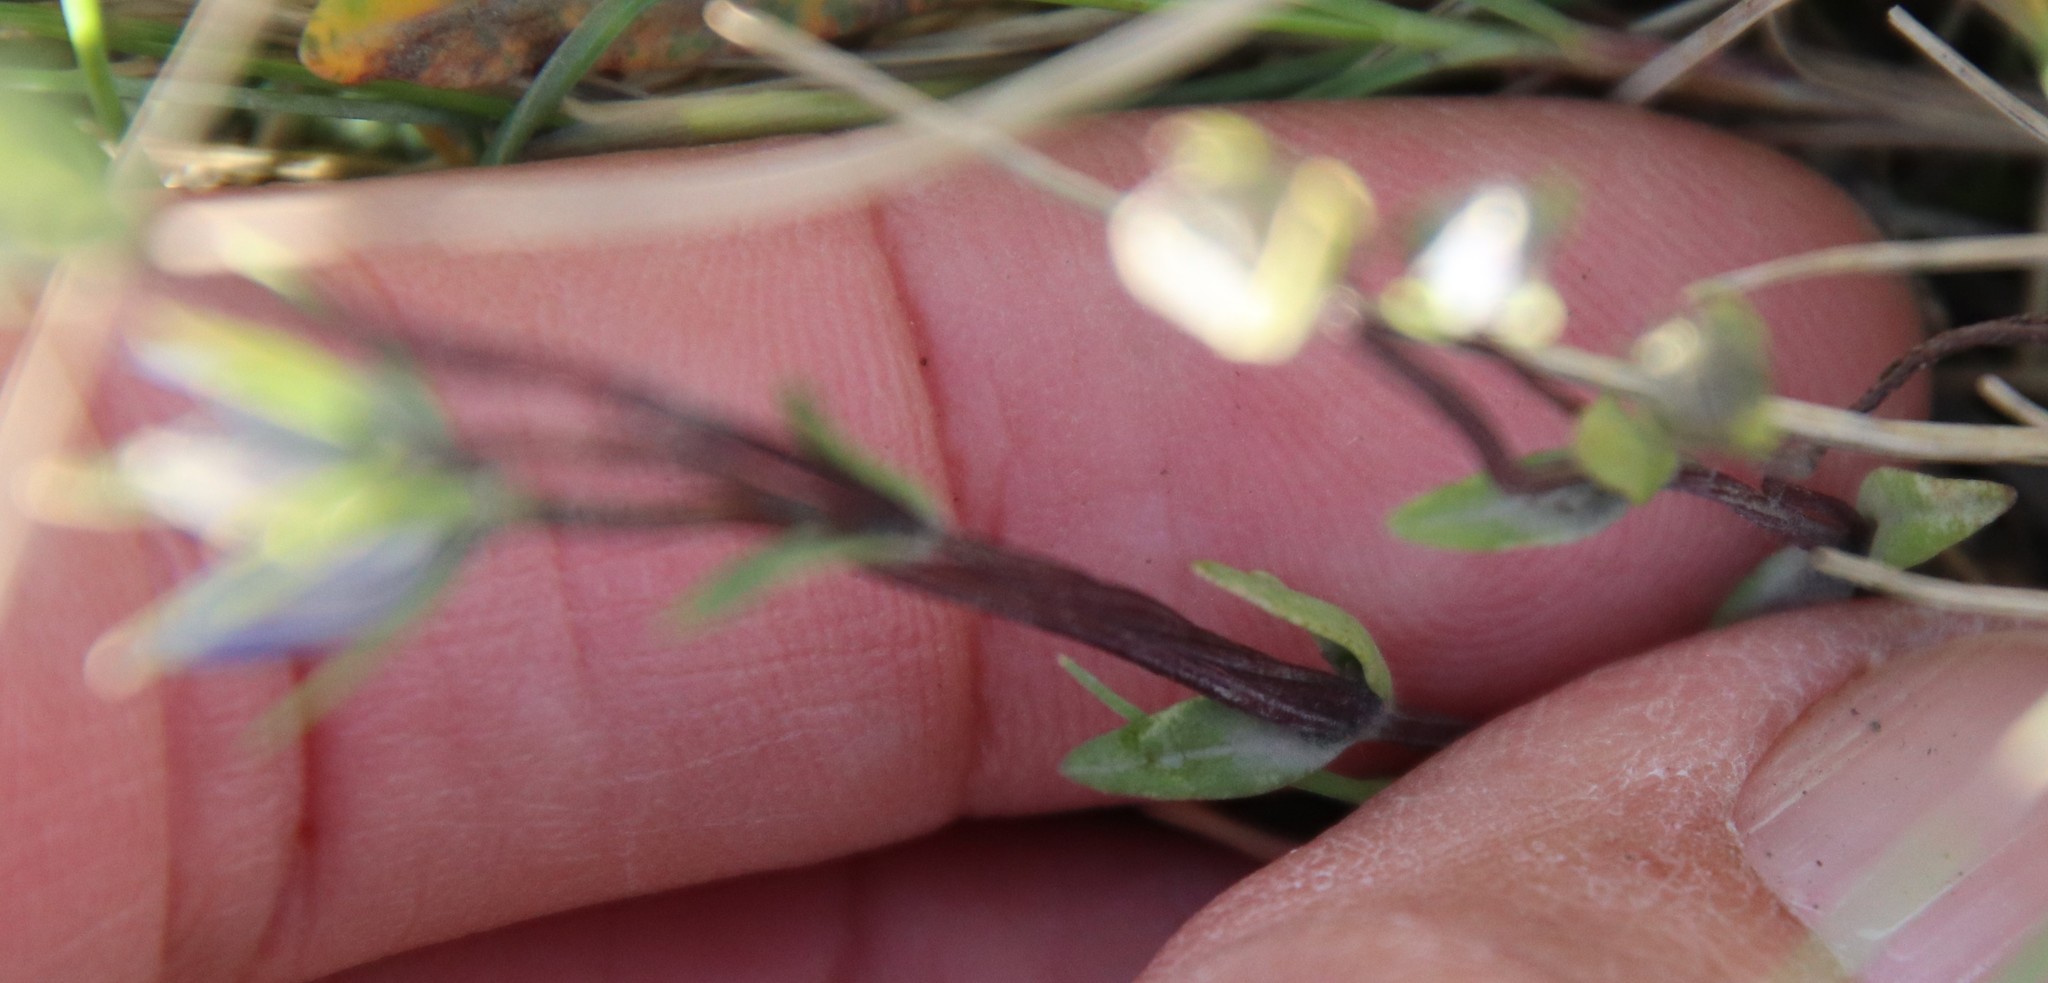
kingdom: Plantae
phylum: Tracheophyta
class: Magnoliopsida
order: Gentianales
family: Gentianaceae
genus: Lomatogonium
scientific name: Lomatogonium rotatum
